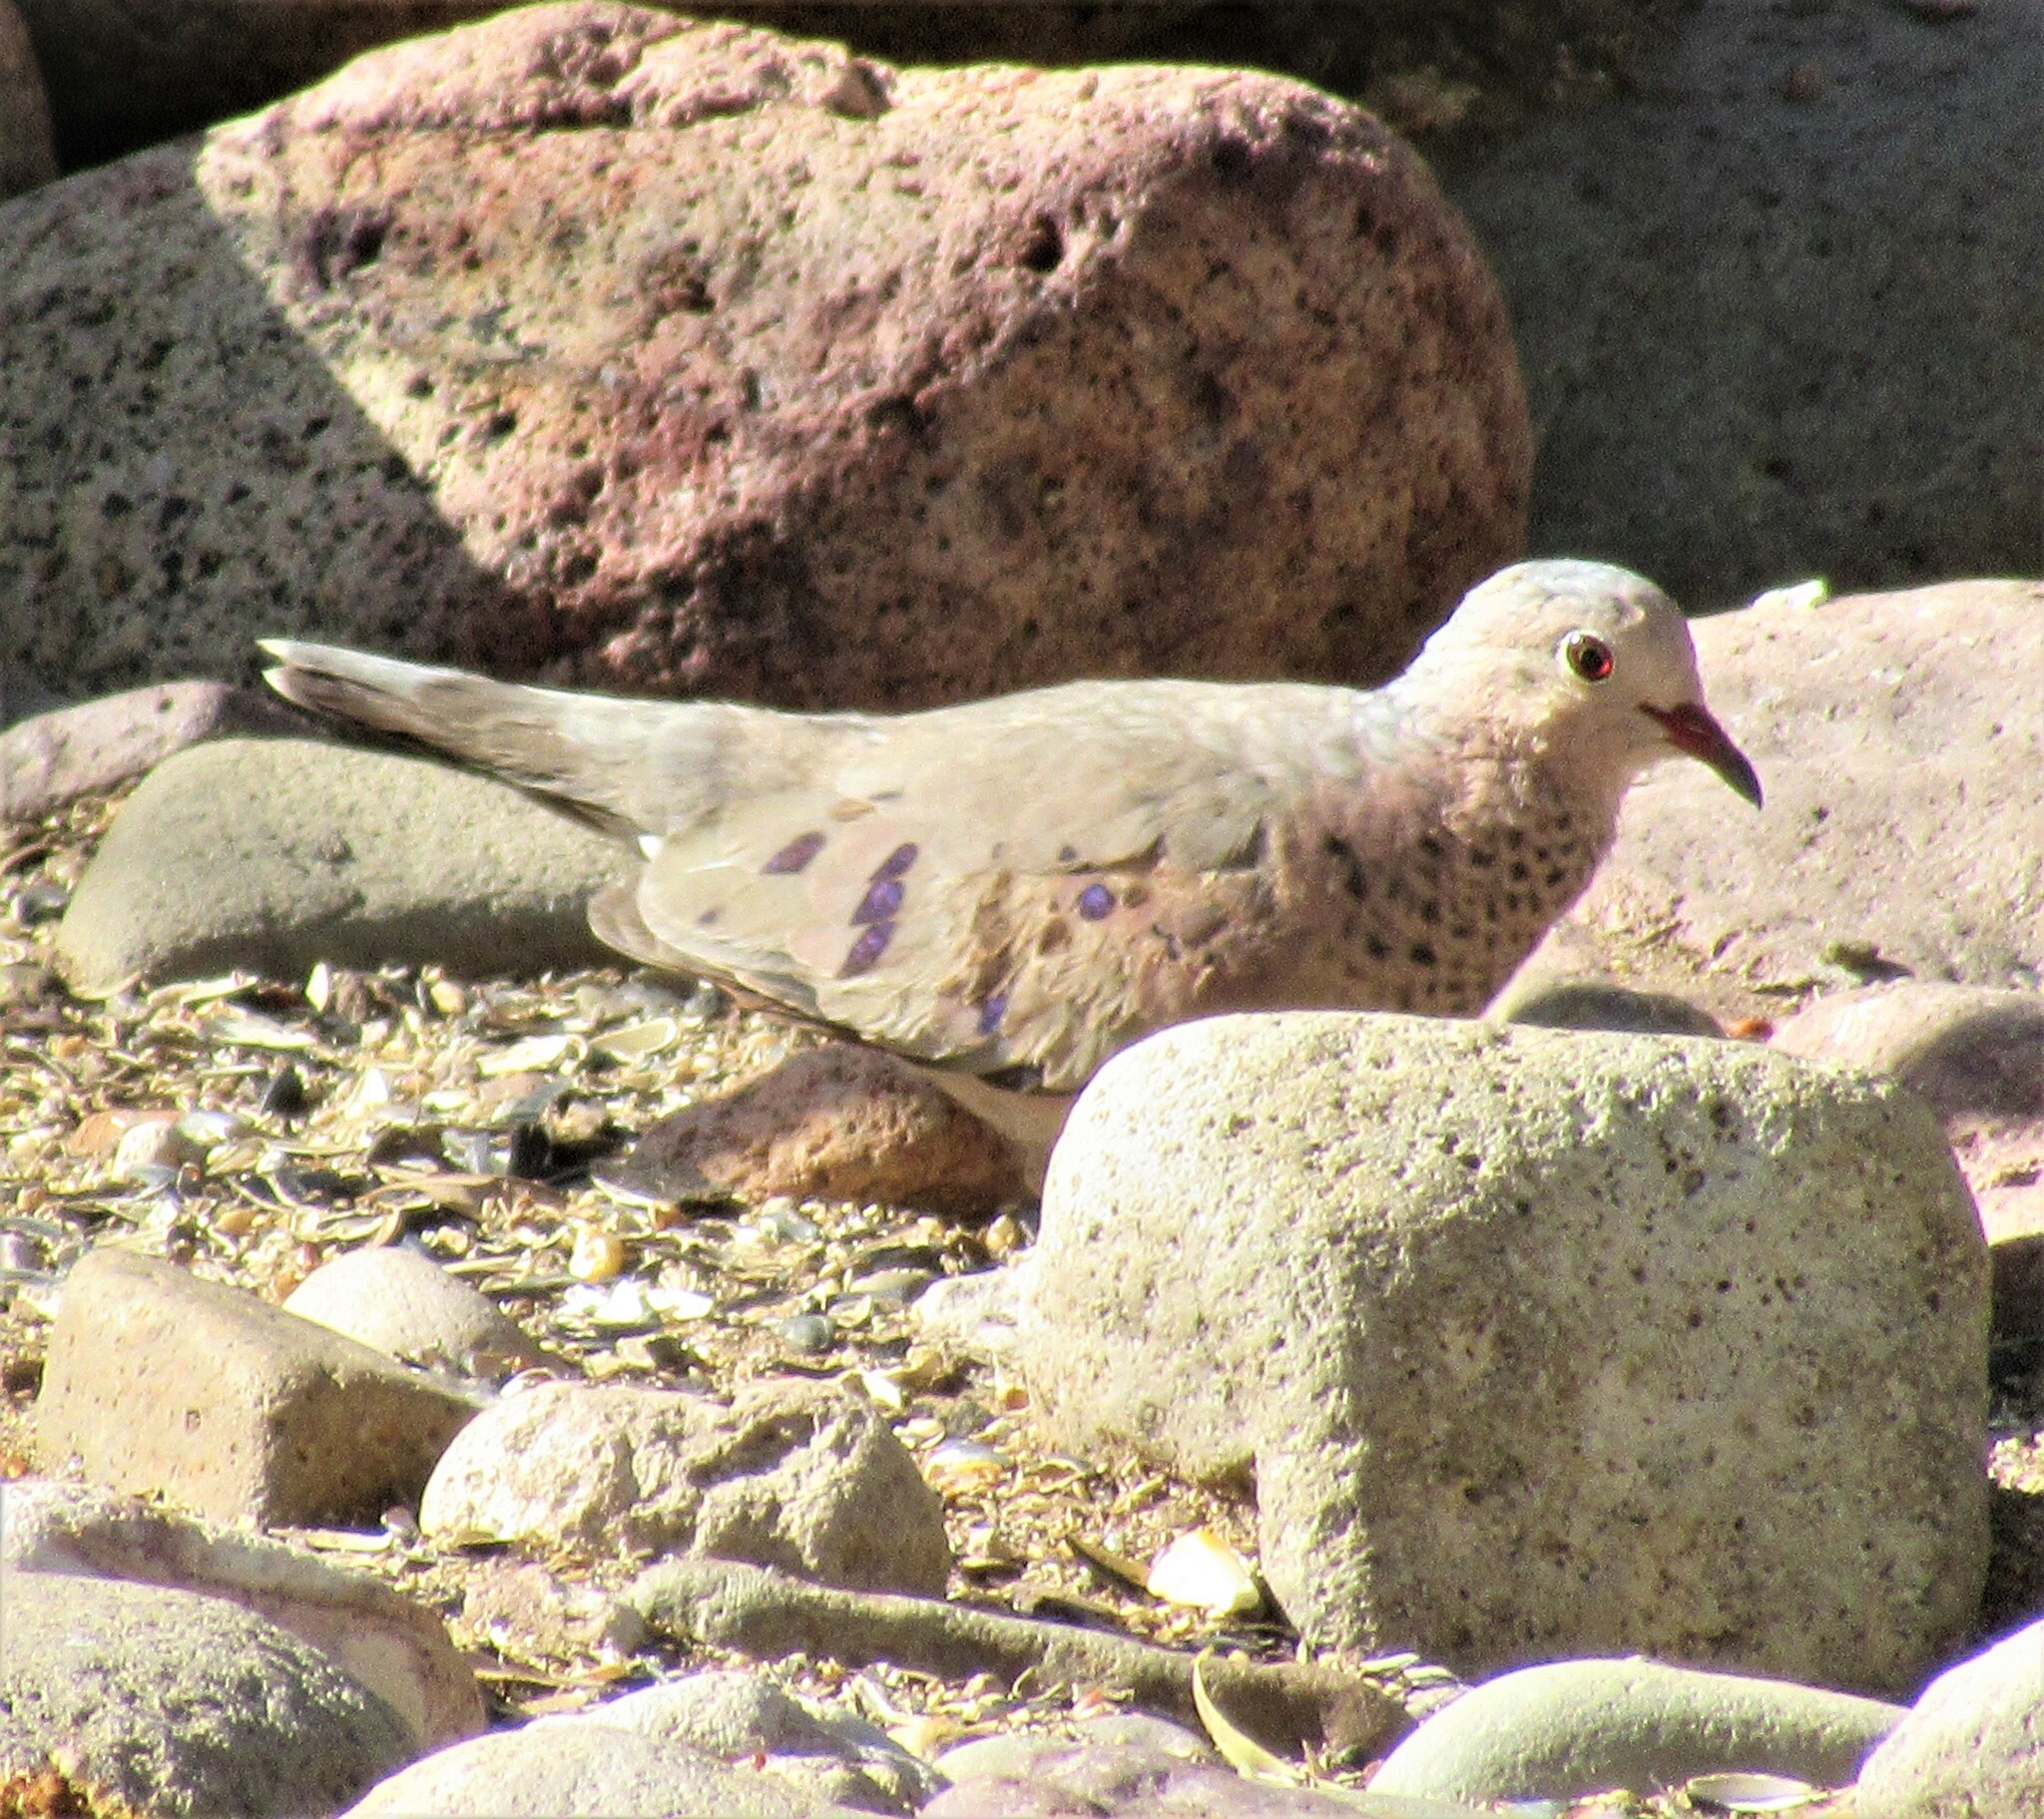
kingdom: Animalia
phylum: Chordata
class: Aves
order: Columbiformes
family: Columbidae
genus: Columbina
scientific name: Columbina passerina
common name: Common ground-dove
